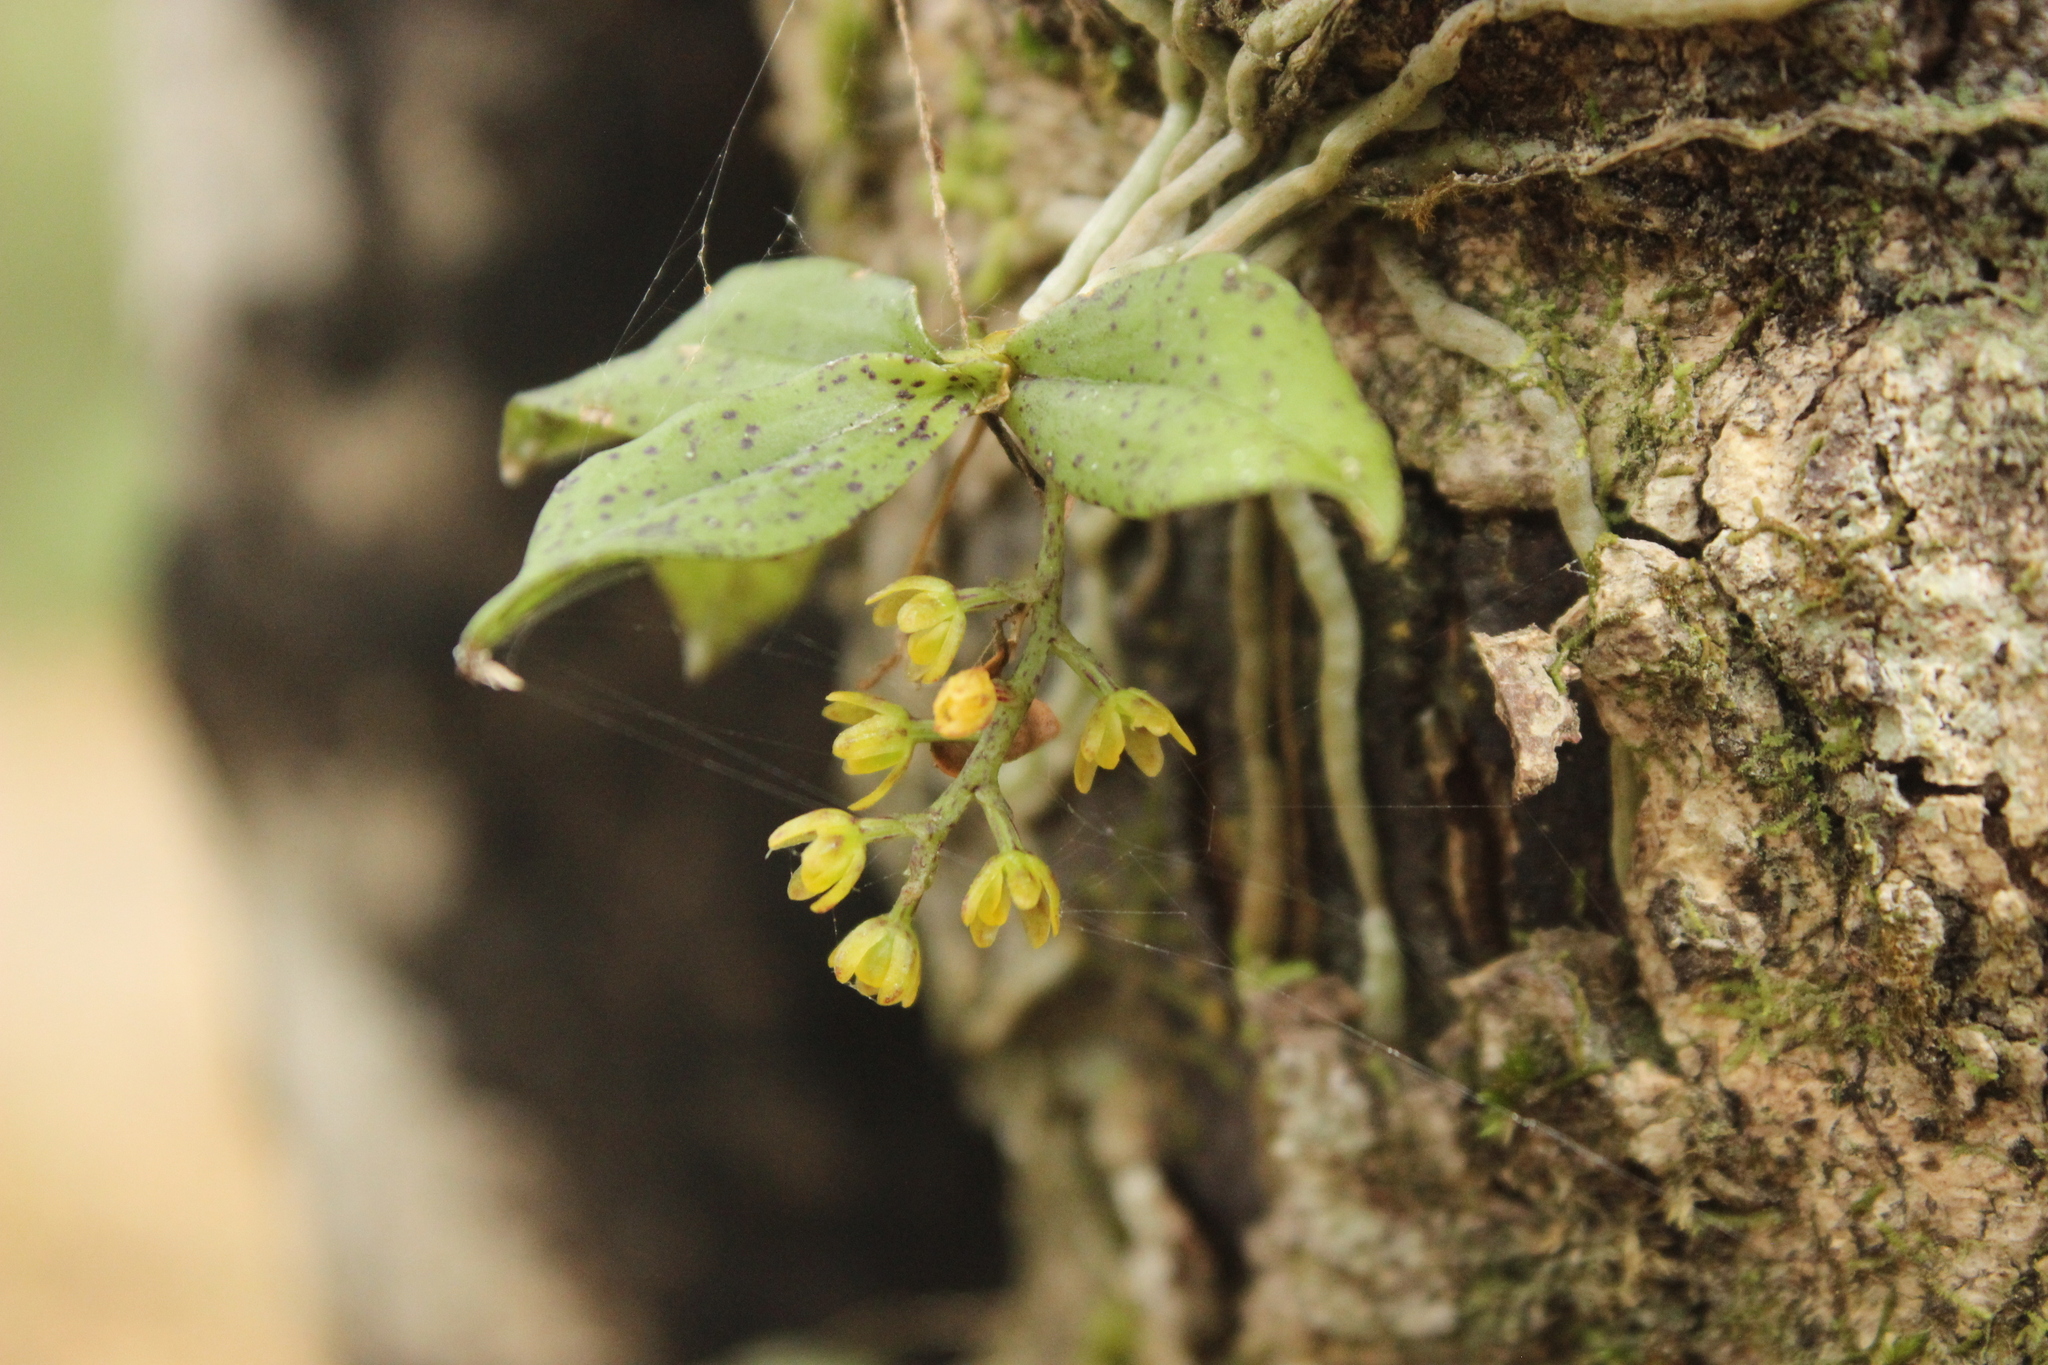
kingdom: Plantae
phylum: Tracheophyta
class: Liliopsida
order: Asparagales
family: Orchidaceae
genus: Drymoanthus
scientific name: Drymoanthus flavus
